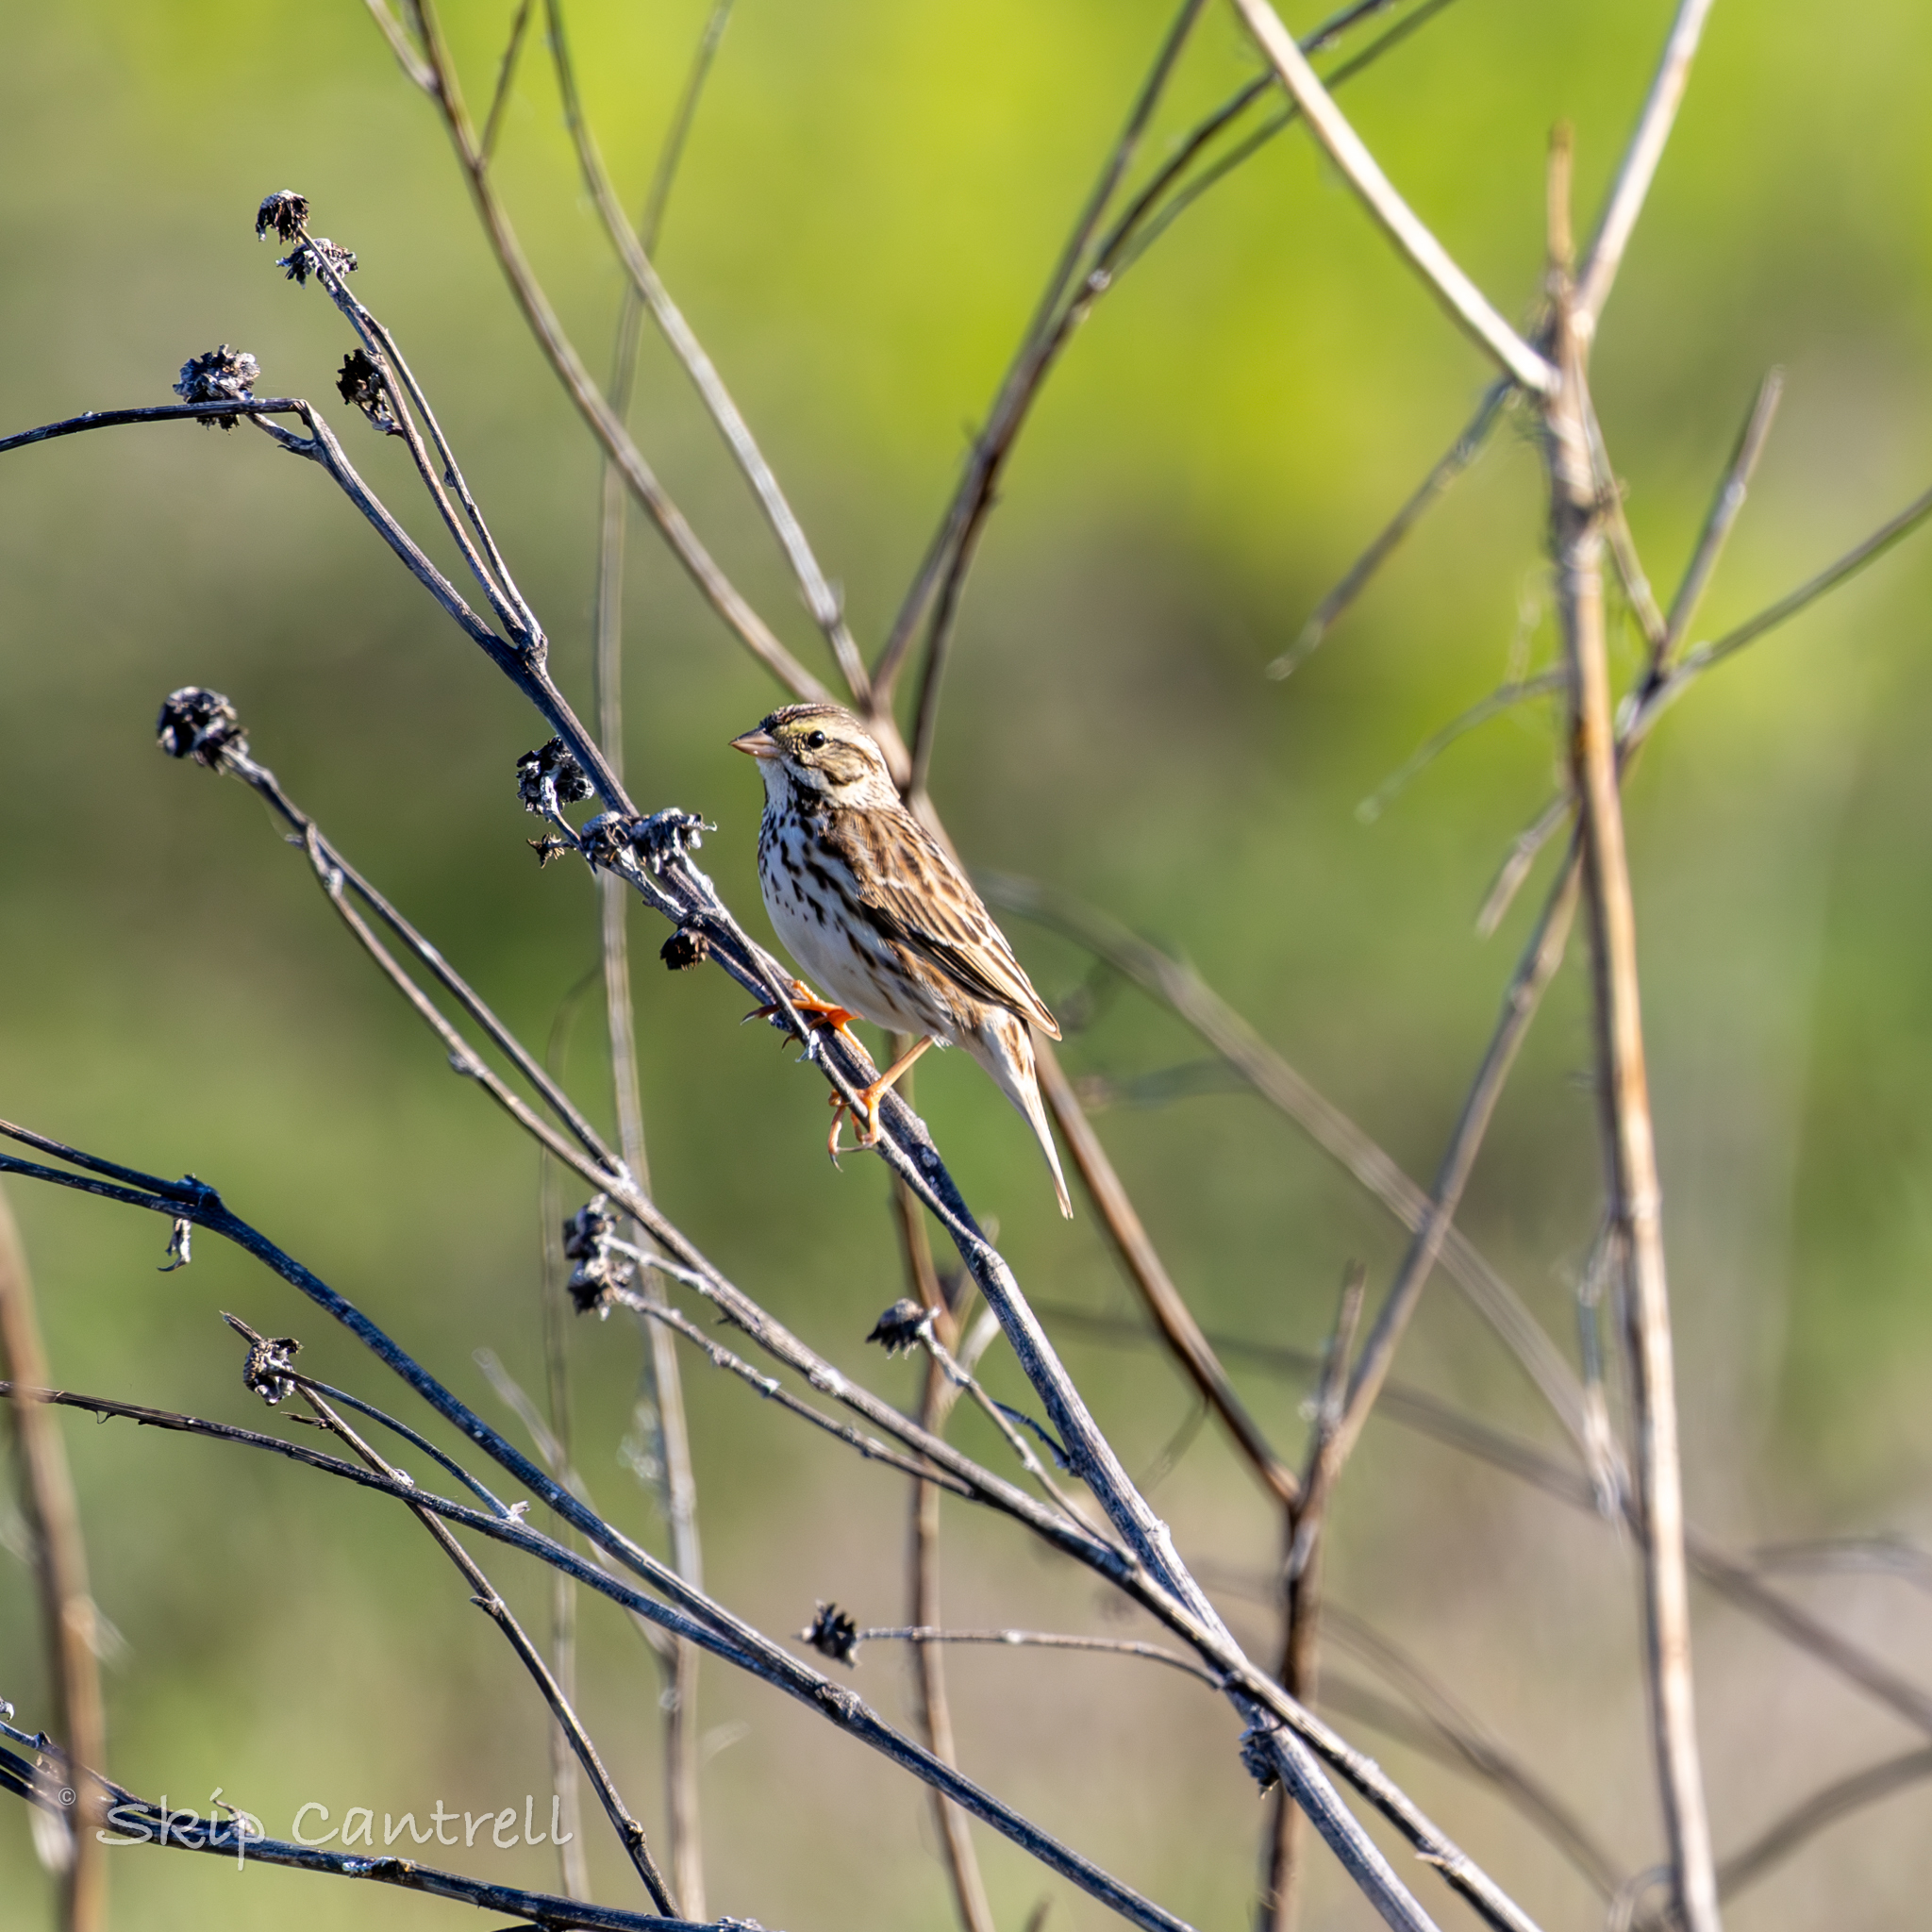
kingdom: Animalia
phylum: Chordata
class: Aves
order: Passeriformes
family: Passerellidae
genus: Passerculus
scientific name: Passerculus sandwichensis
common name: Savannah sparrow
